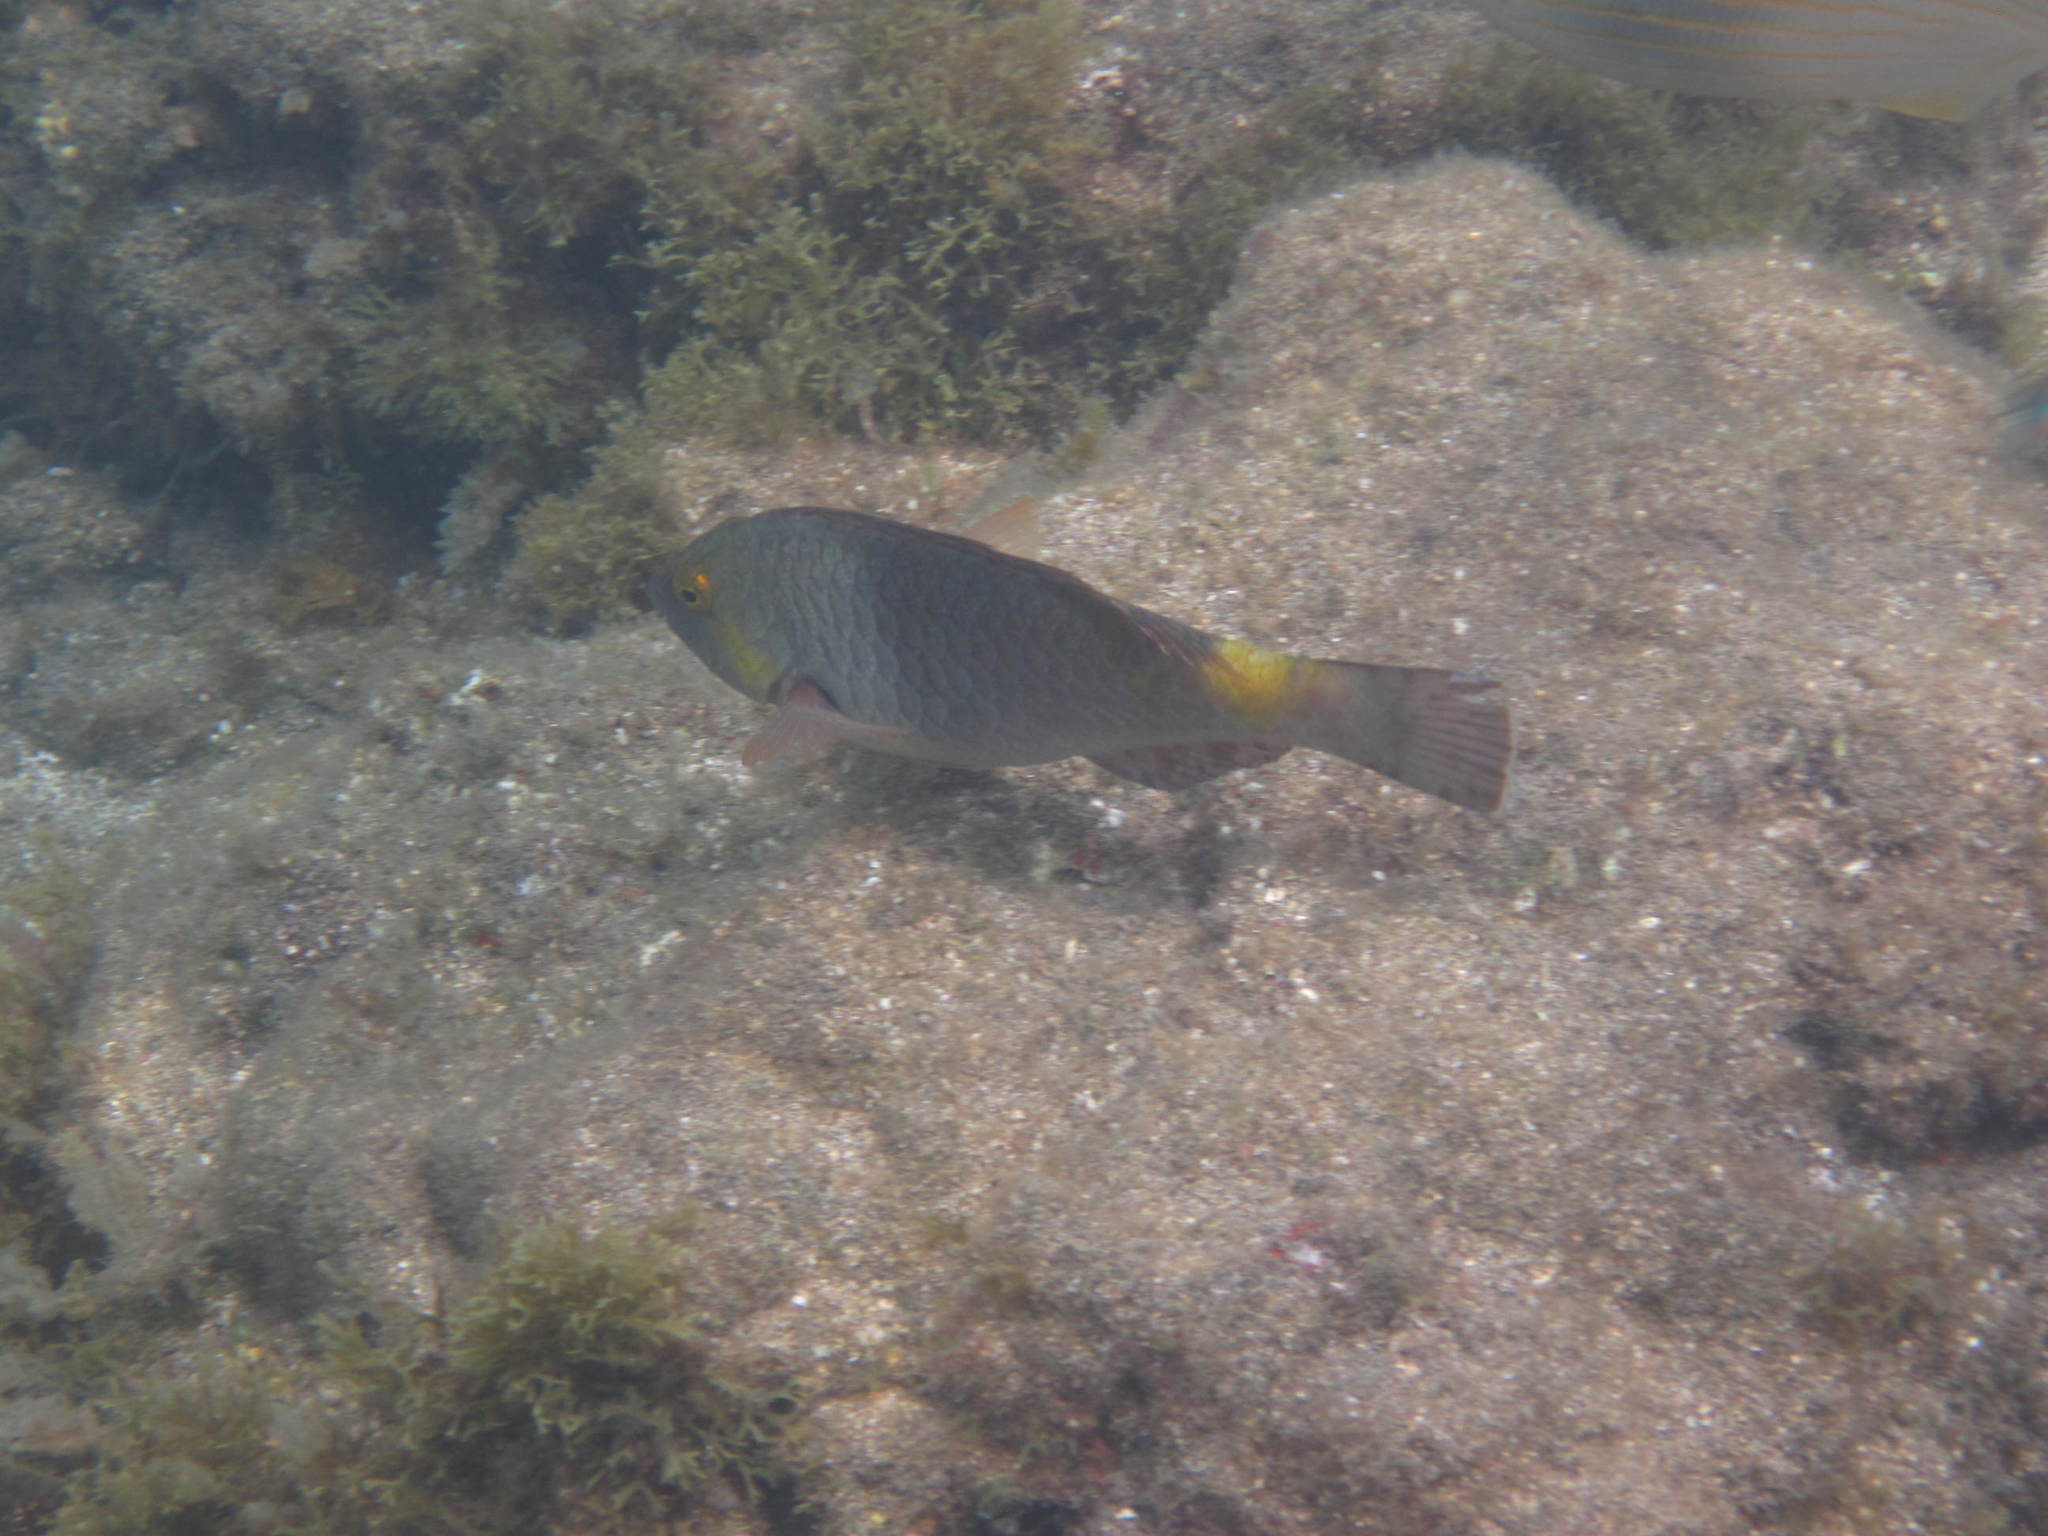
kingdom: Animalia
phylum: Chordata
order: Perciformes
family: Scaridae
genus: Sparisoma
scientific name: Sparisoma cretense
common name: Parrotfish
